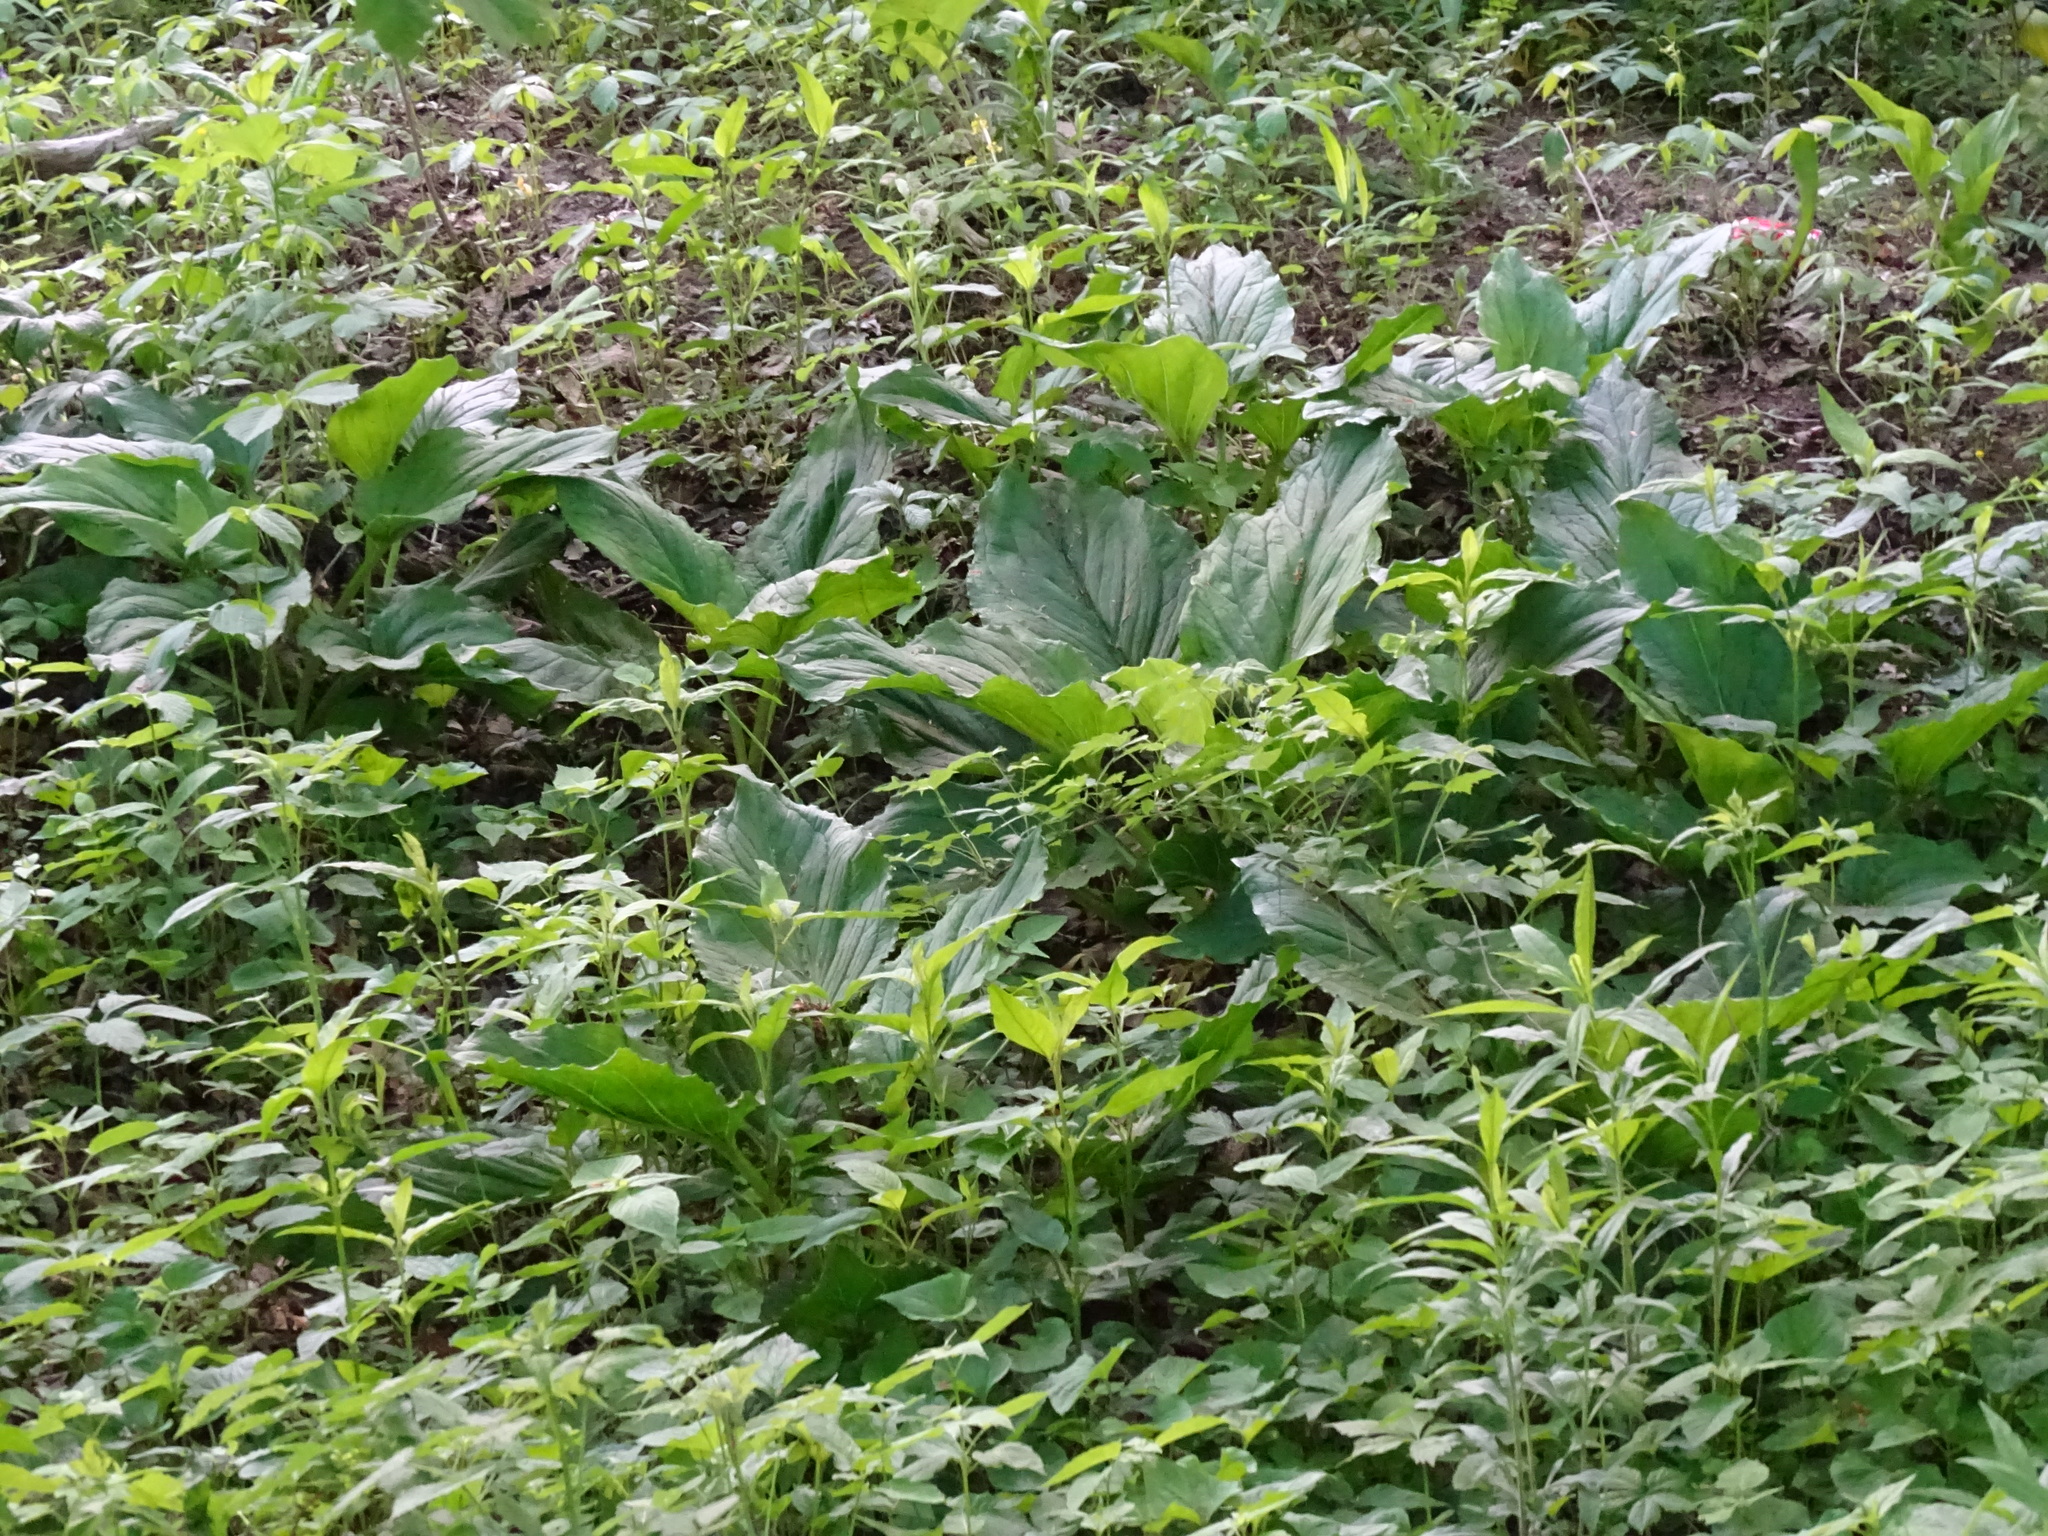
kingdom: Plantae
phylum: Tracheophyta
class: Liliopsida
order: Alismatales
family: Araceae
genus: Symplocarpus
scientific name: Symplocarpus foetidus
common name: Eastern skunk cabbage
